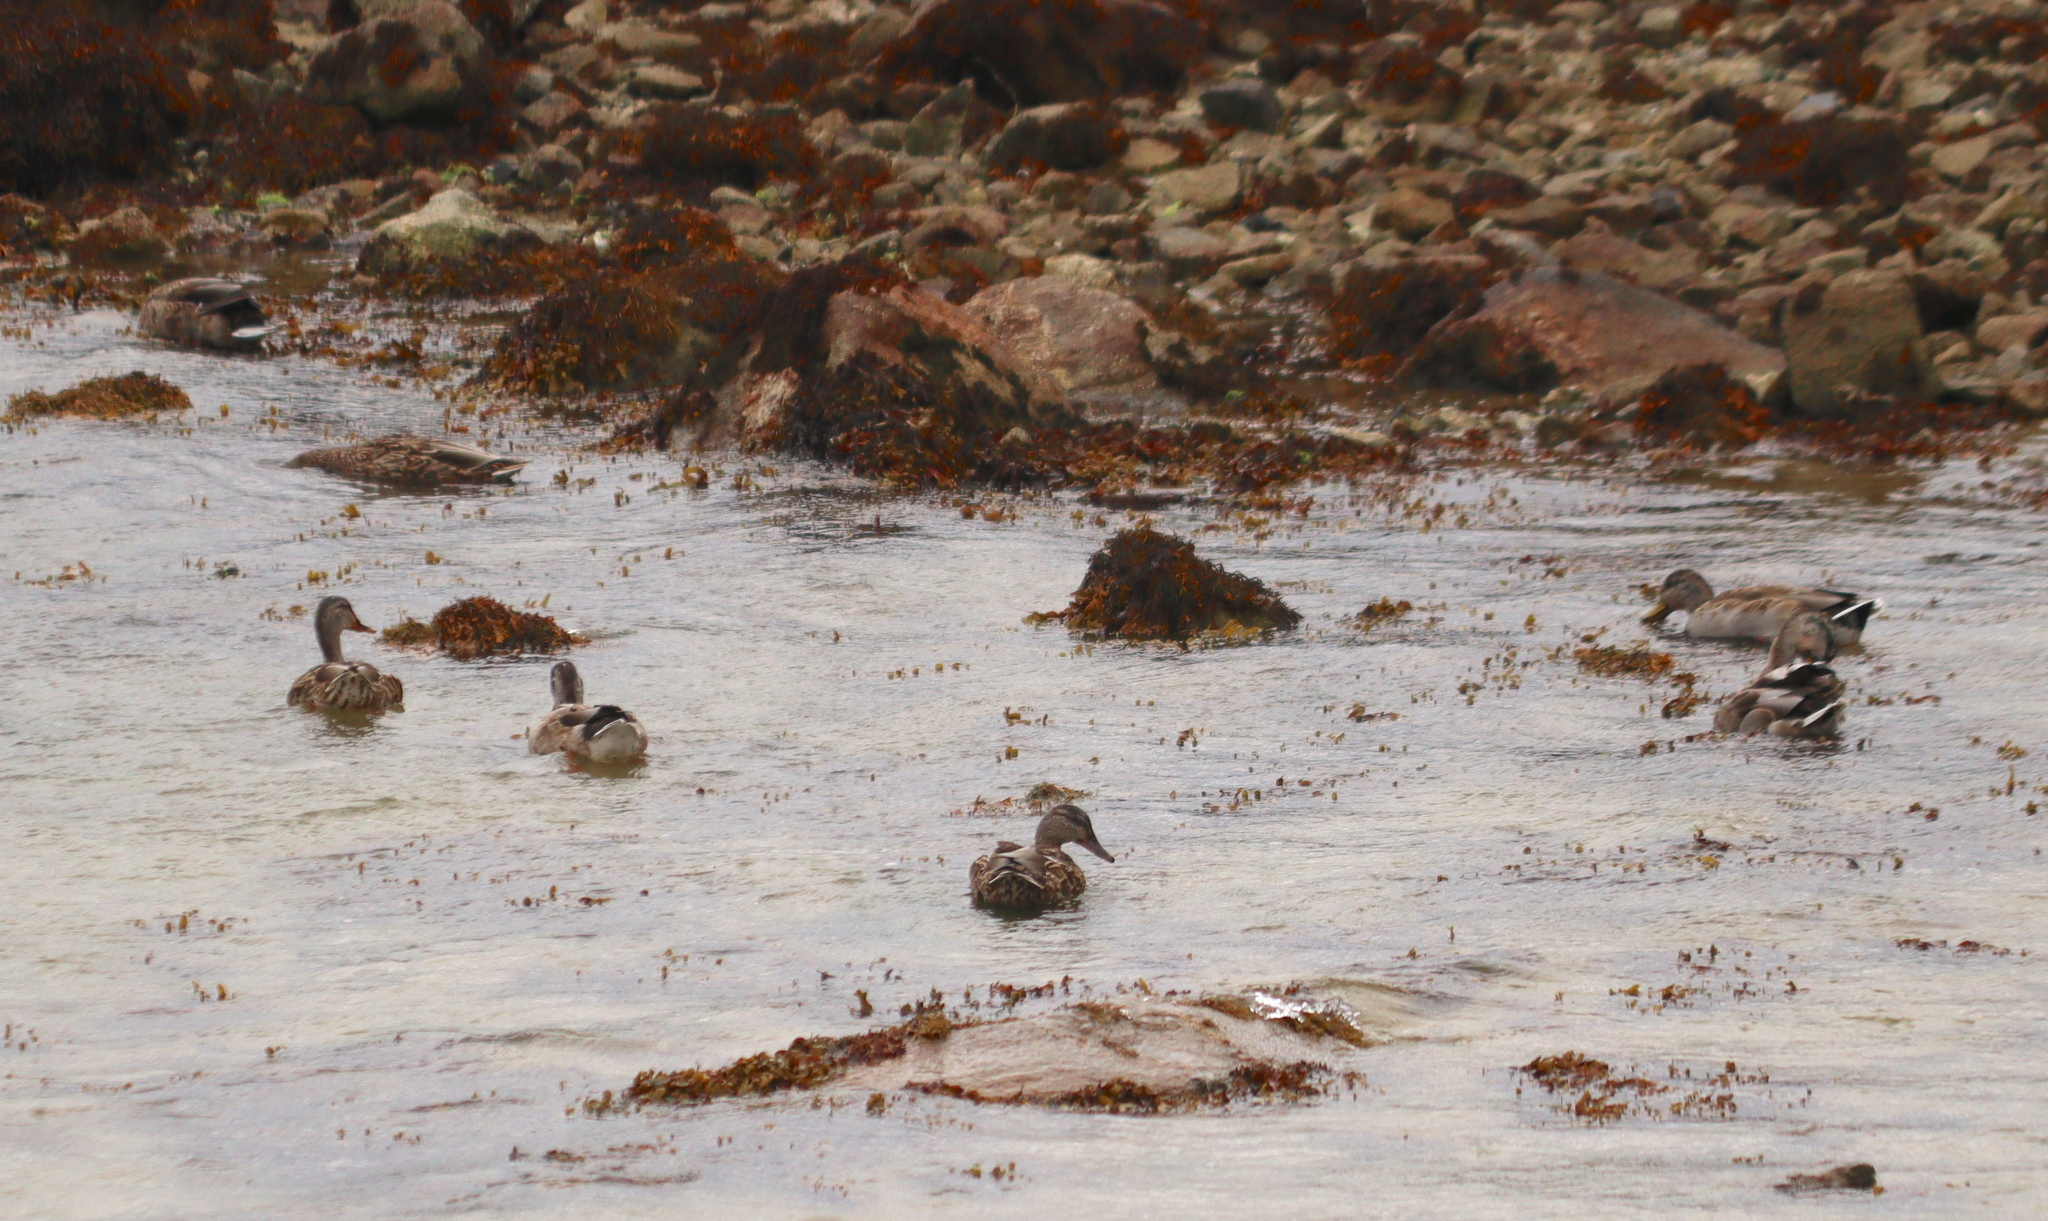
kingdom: Animalia
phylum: Chordata
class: Aves
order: Anseriformes
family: Anatidae
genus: Anas
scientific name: Anas platyrhynchos
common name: Mallard
